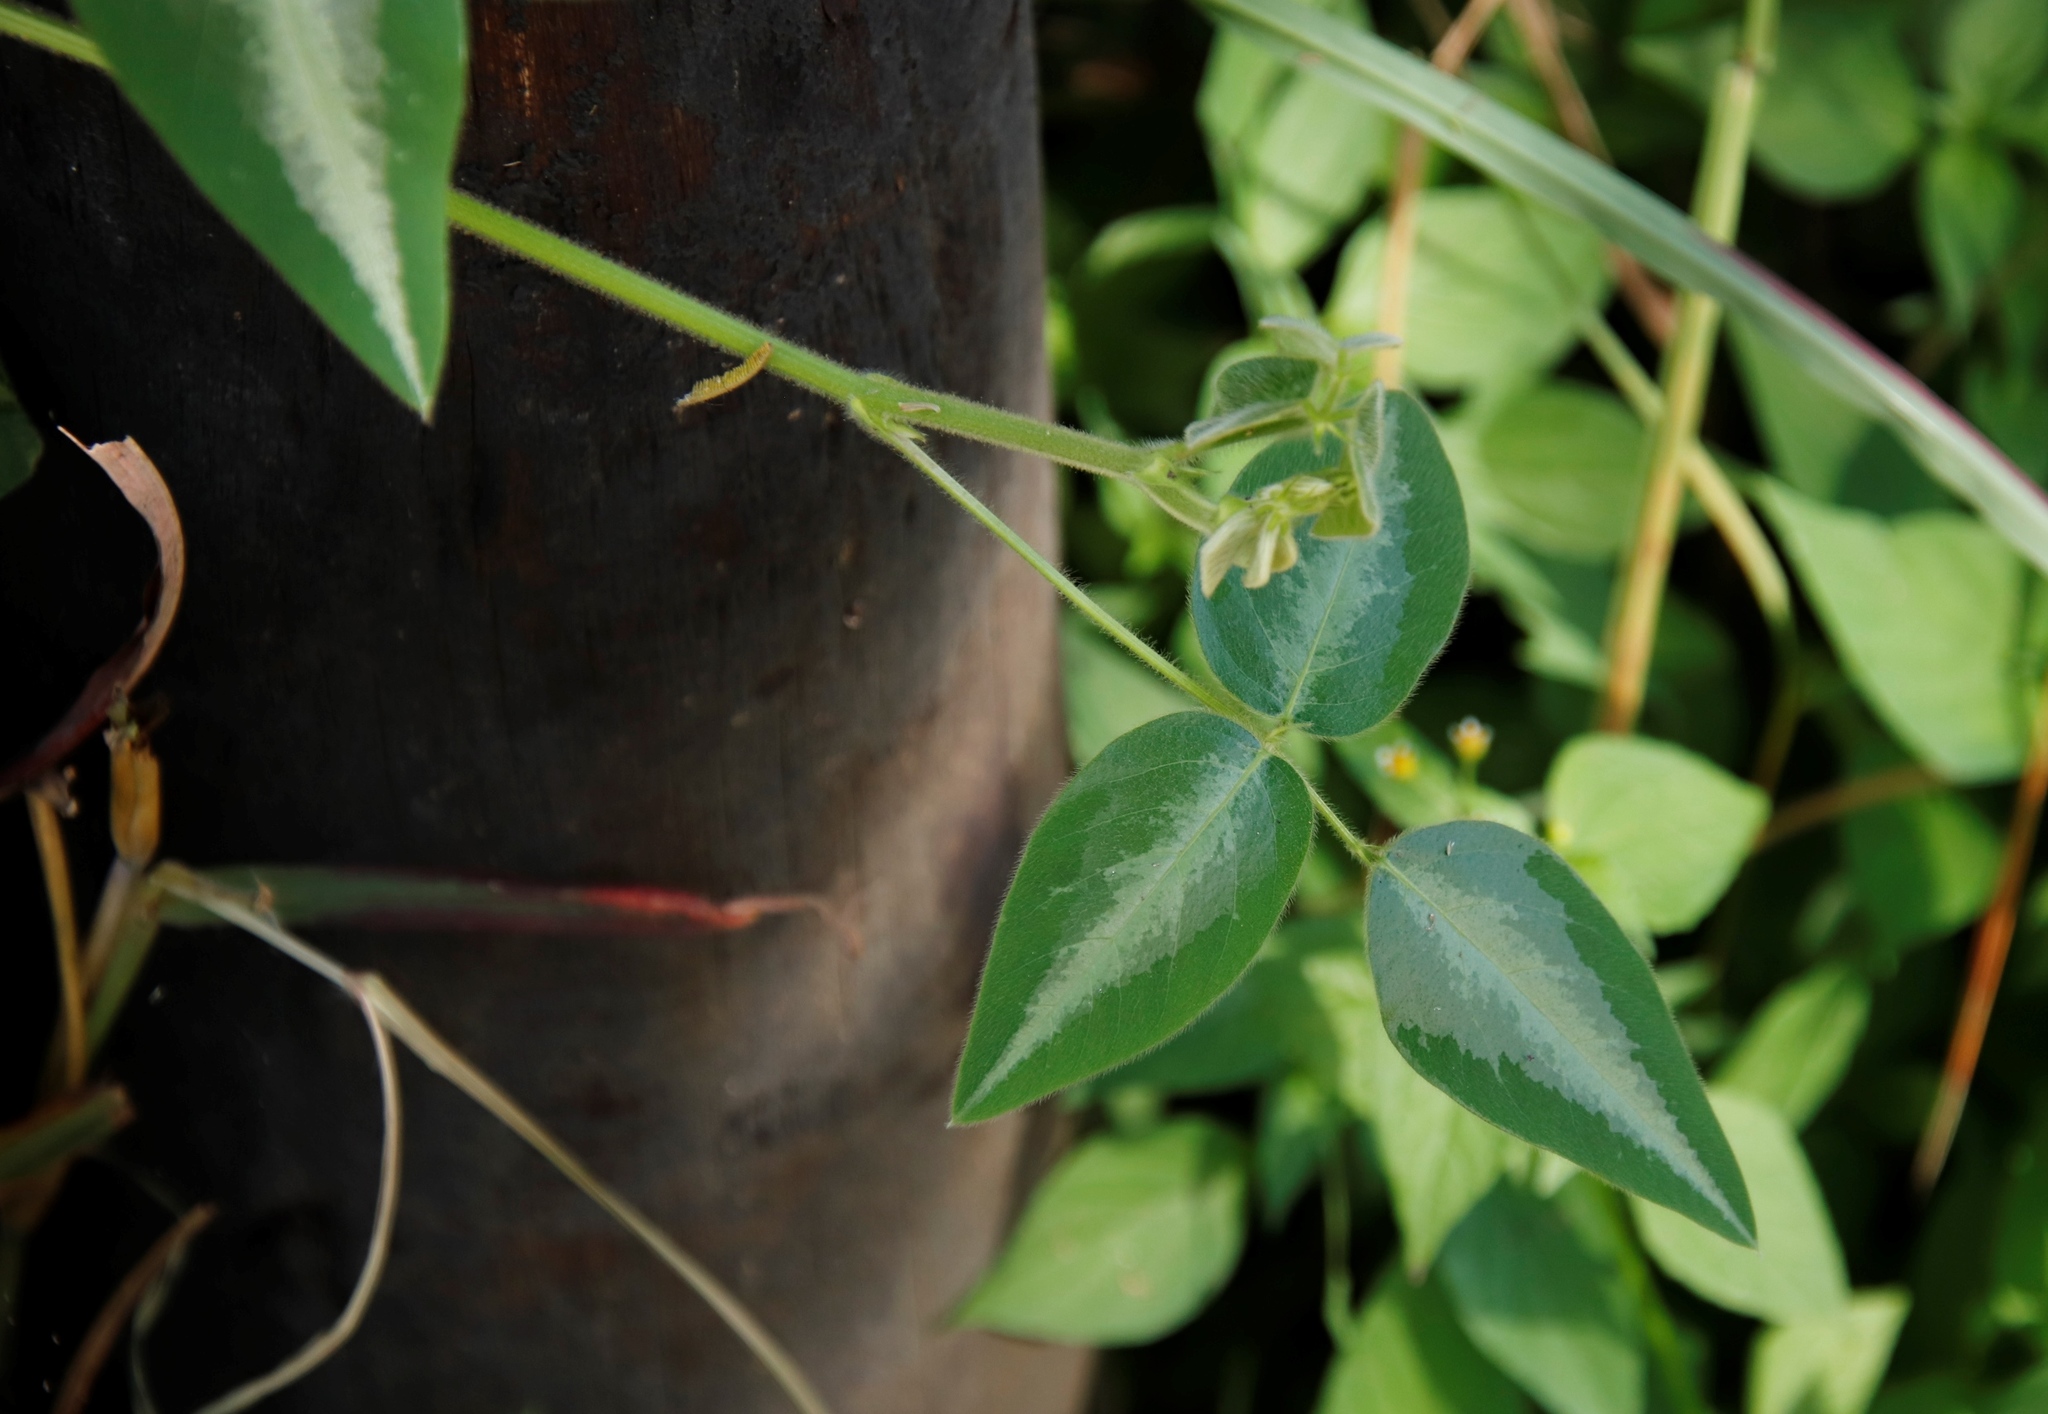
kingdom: Plantae
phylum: Tracheophyta
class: Magnoliopsida
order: Fabales
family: Fabaceae
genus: Desmodium
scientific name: Desmodium uncinatum
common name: Silverleaf desmodium
